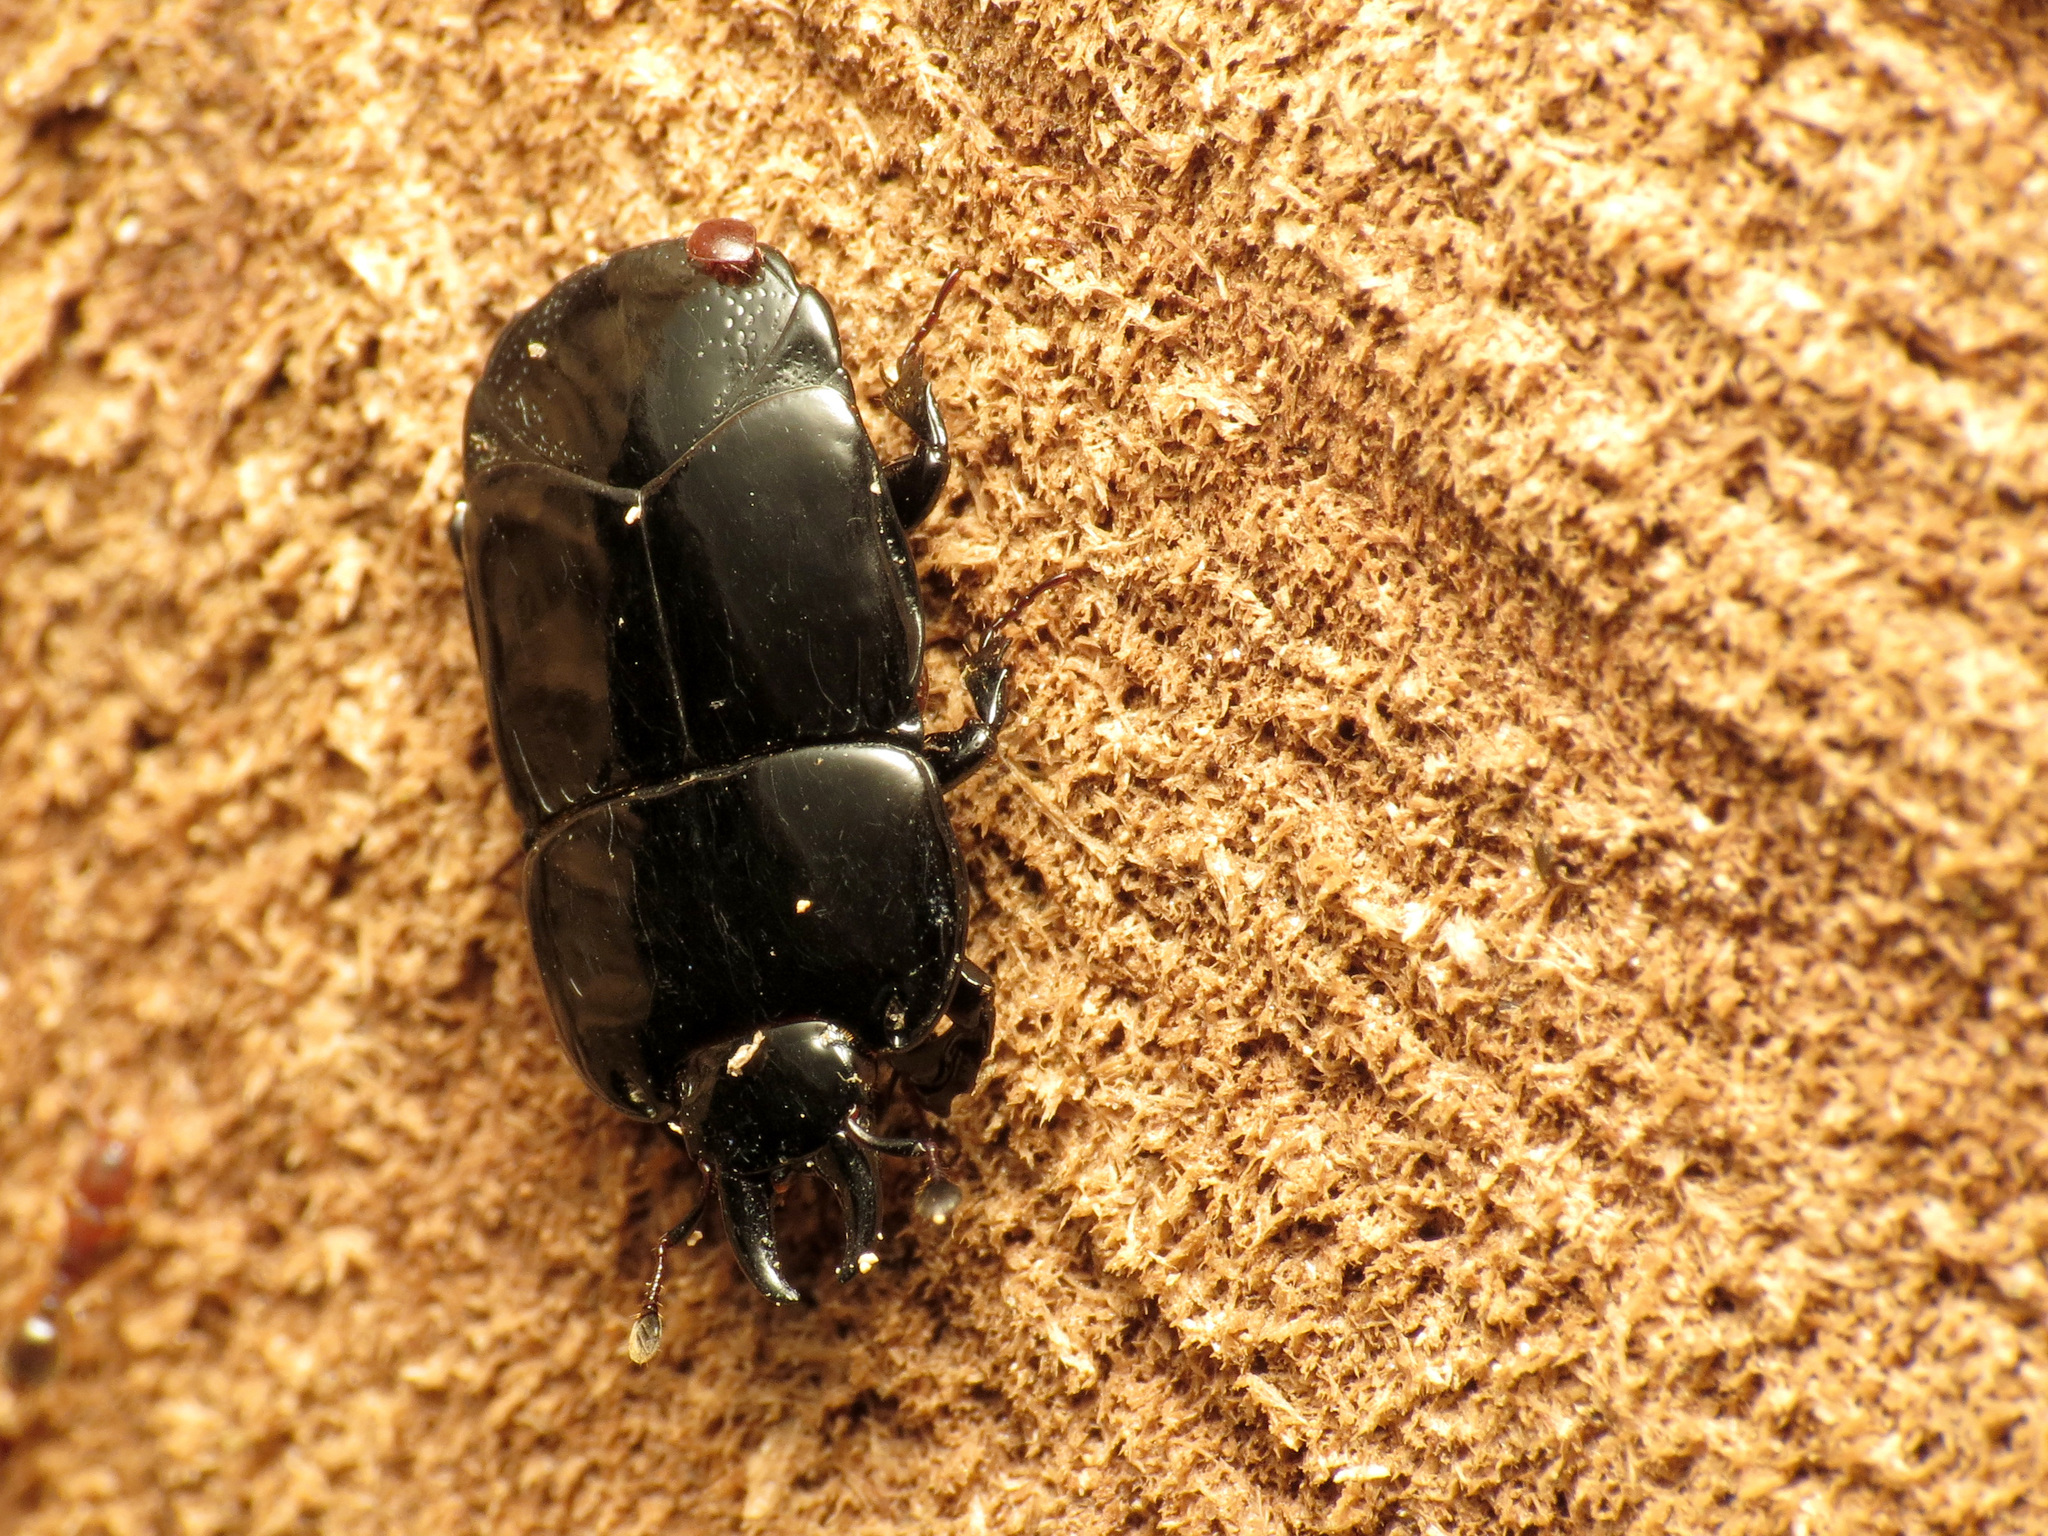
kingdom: Animalia
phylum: Arthropoda
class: Insecta
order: Coleoptera
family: Histeridae
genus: Hololepta
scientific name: Hololepta aequalis
